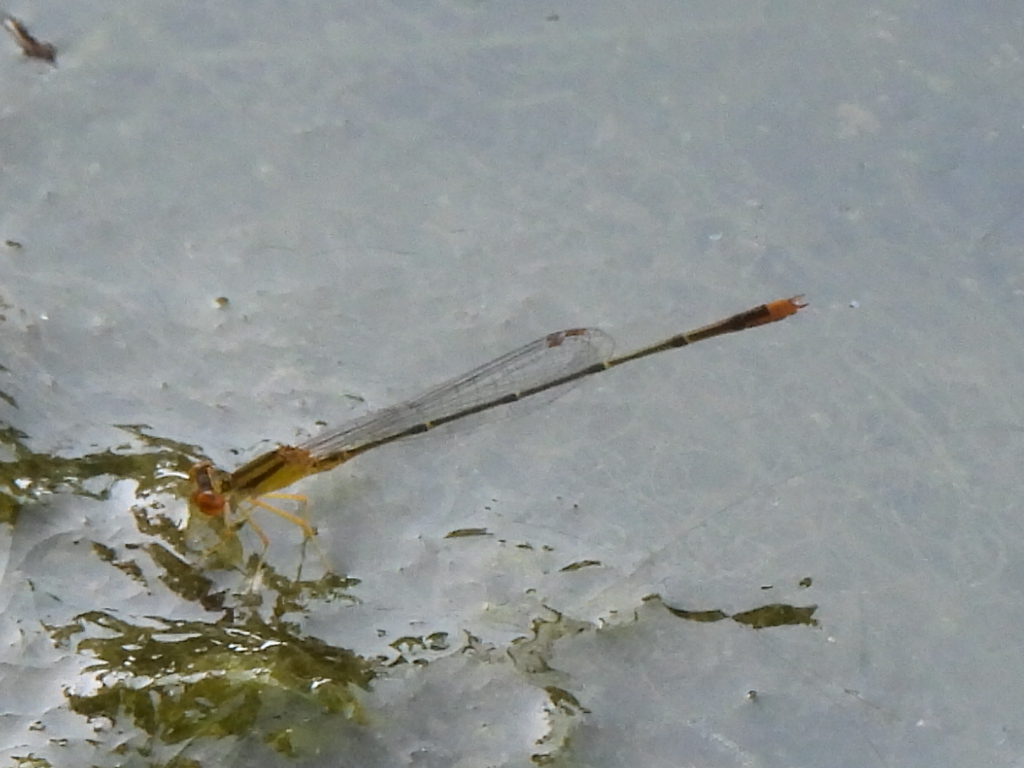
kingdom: Animalia
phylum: Arthropoda
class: Insecta
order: Odonata
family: Coenagrionidae
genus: Enallagma
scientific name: Enallagma signatum
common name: Orange bluet
